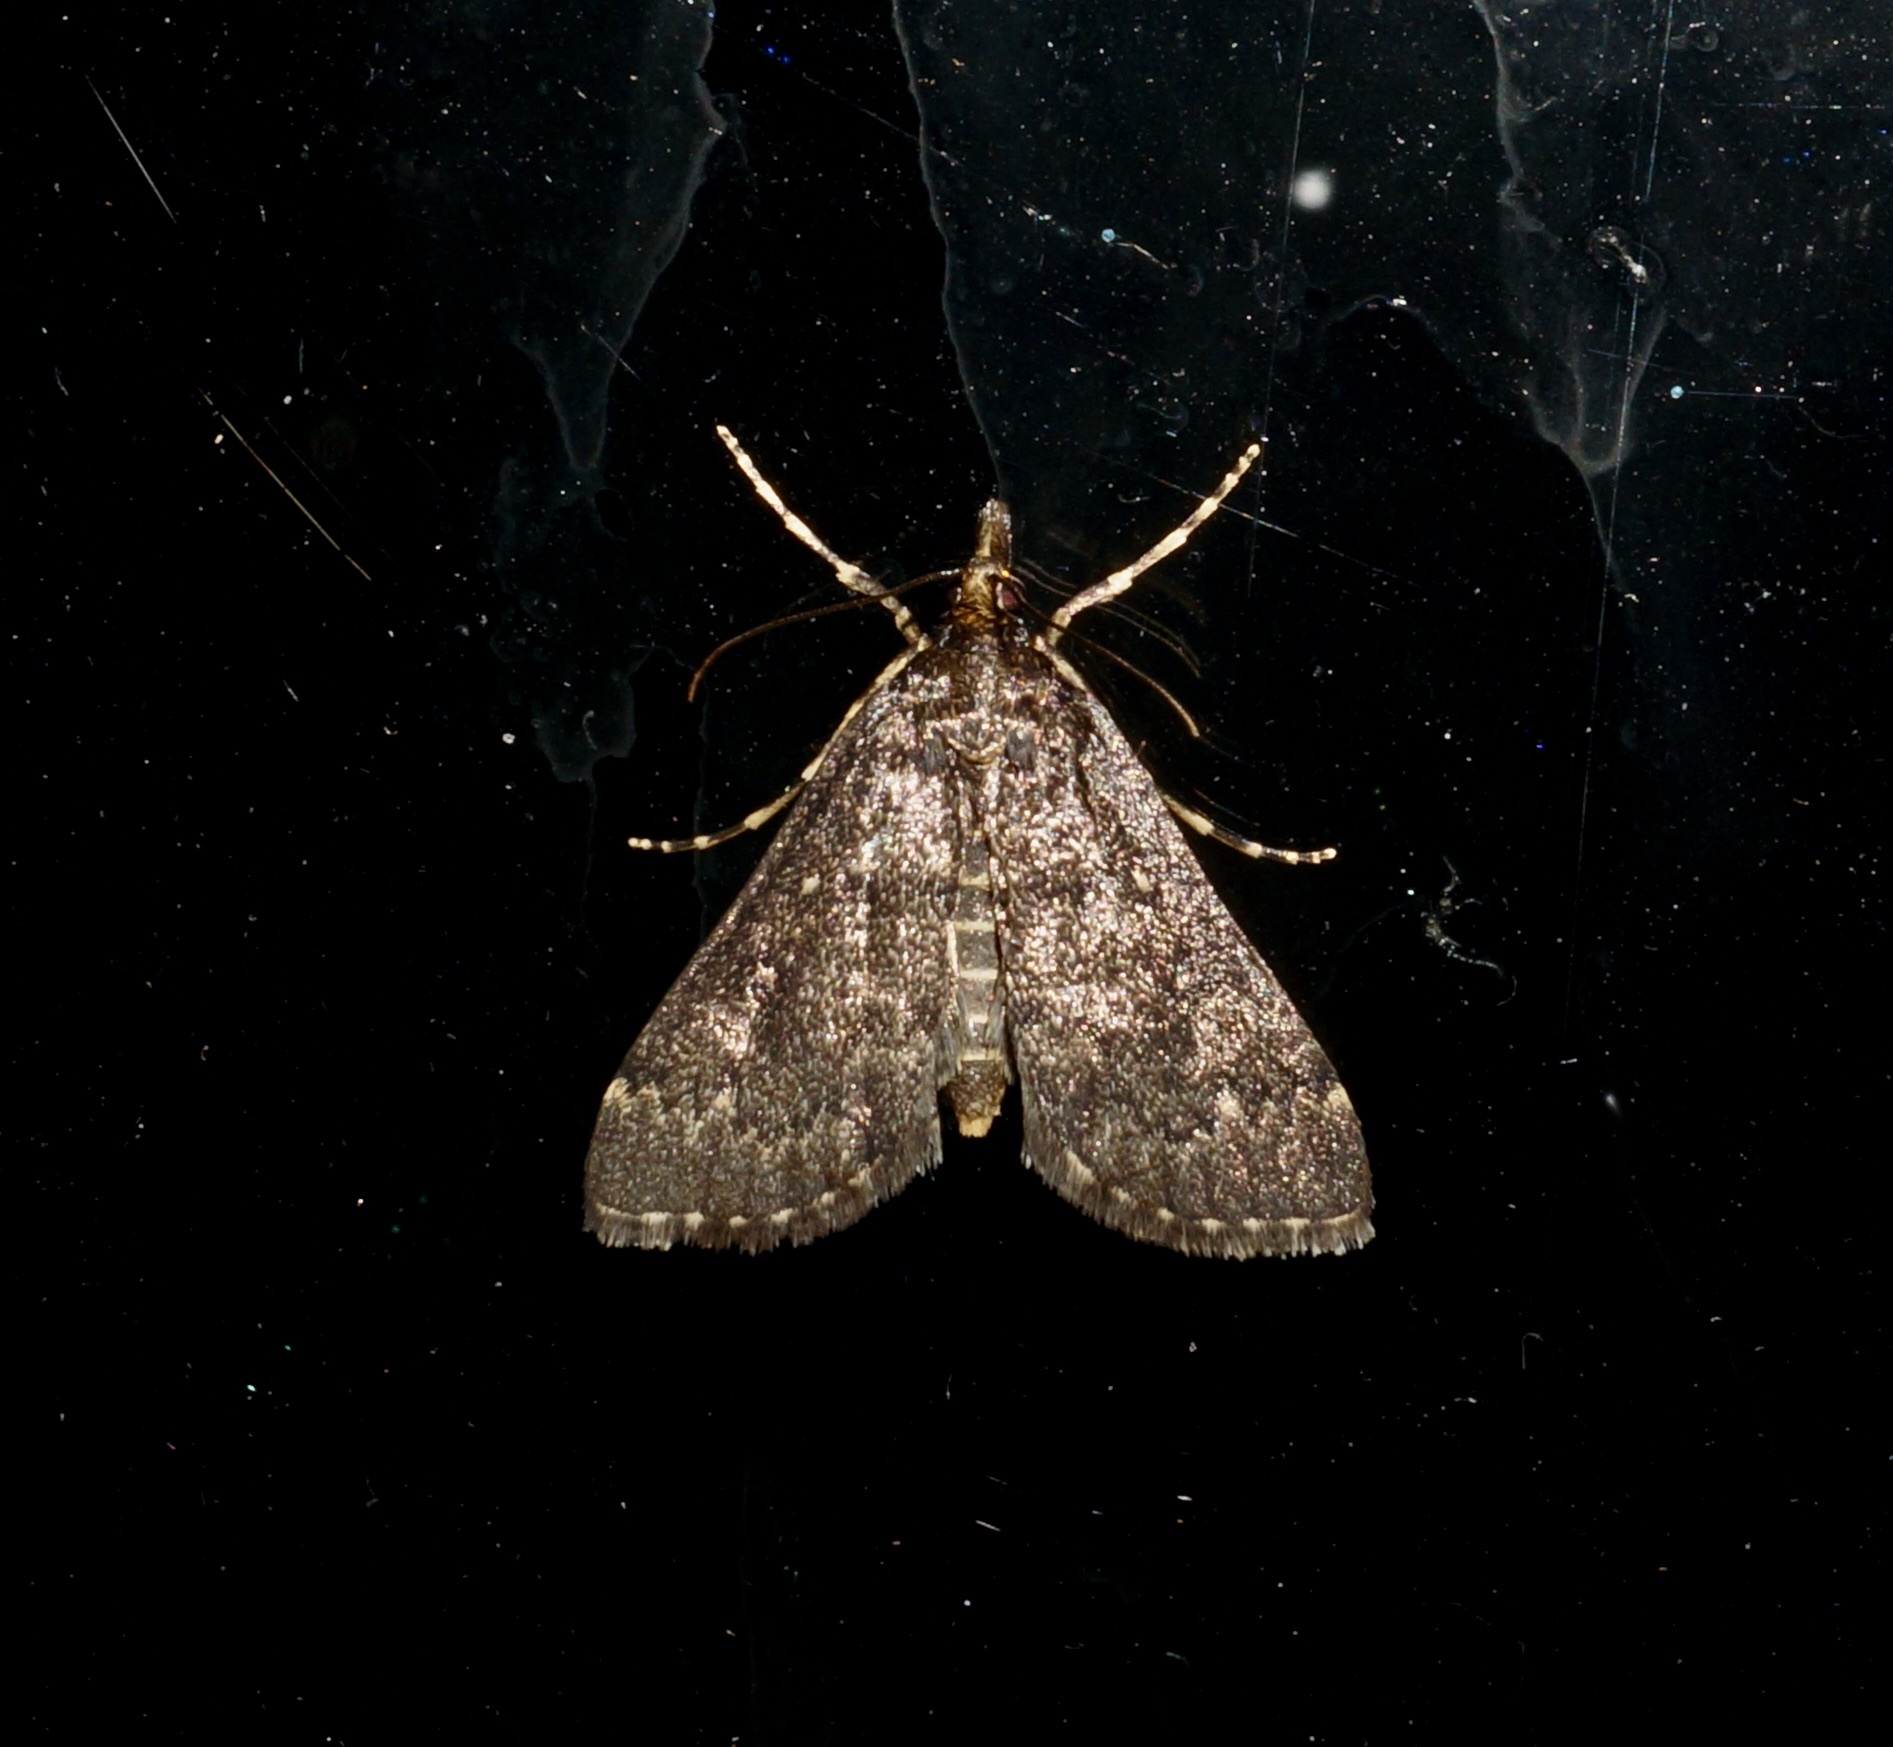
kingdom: Animalia
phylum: Arthropoda
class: Insecta
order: Lepidoptera
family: Crambidae
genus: Loxostege
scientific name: Loxostege Proternia philocapna
